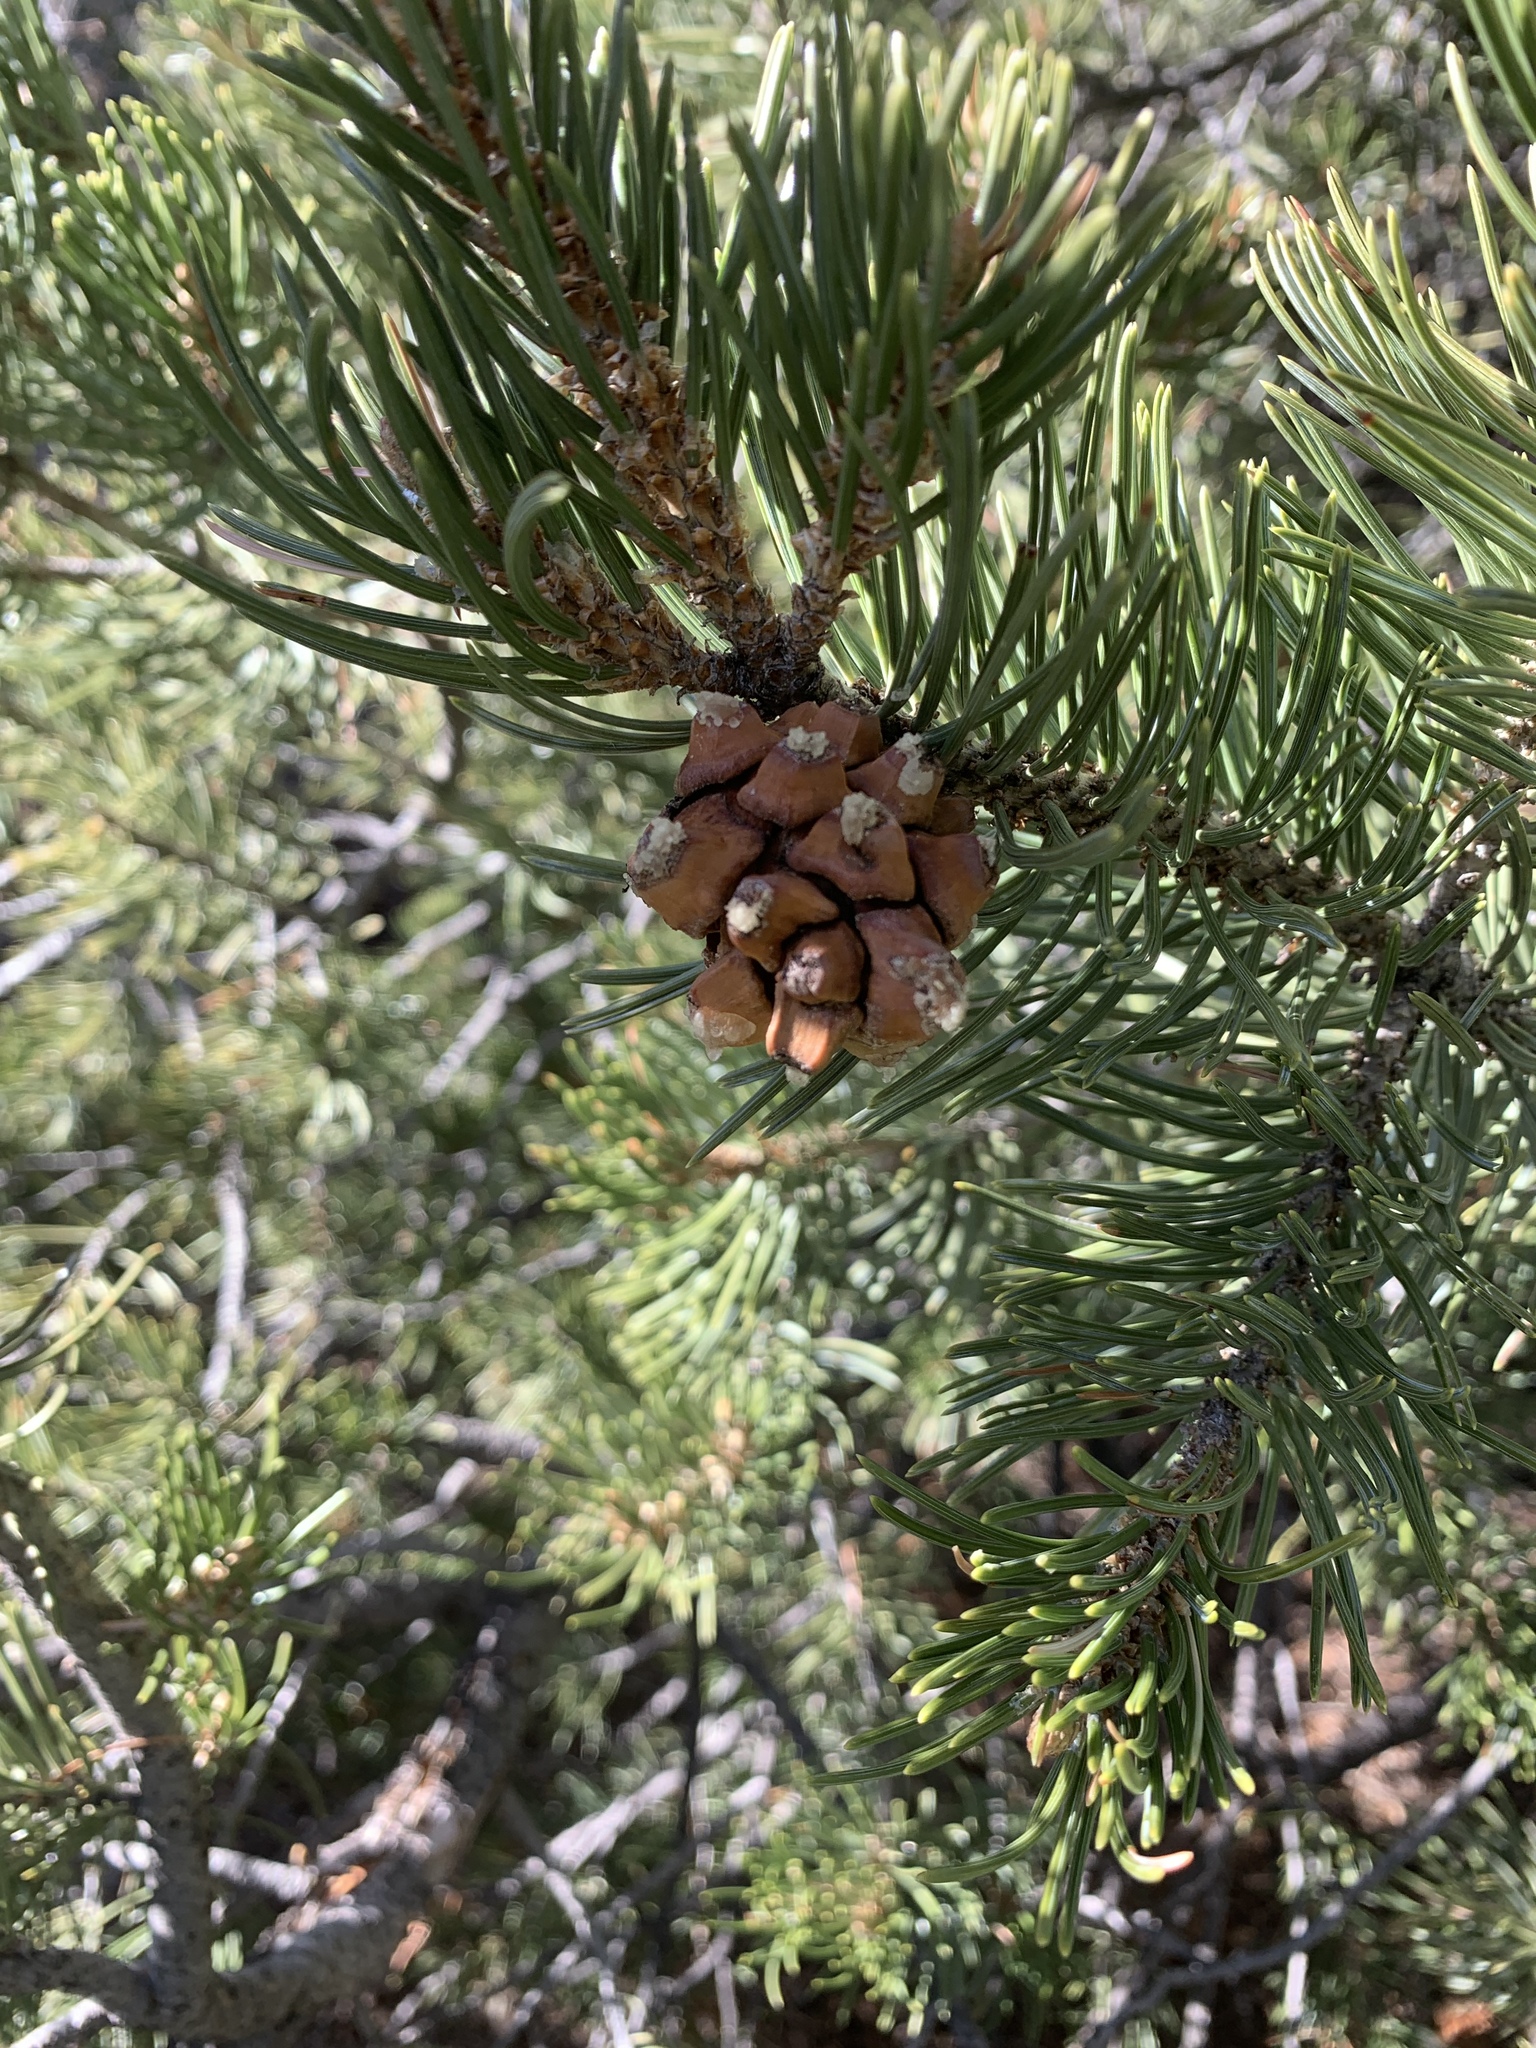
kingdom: Plantae
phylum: Tracheophyta
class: Pinopsida
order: Pinales
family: Pinaceae
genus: Pinus
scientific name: Pinus edulis
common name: Colorado pinyon
